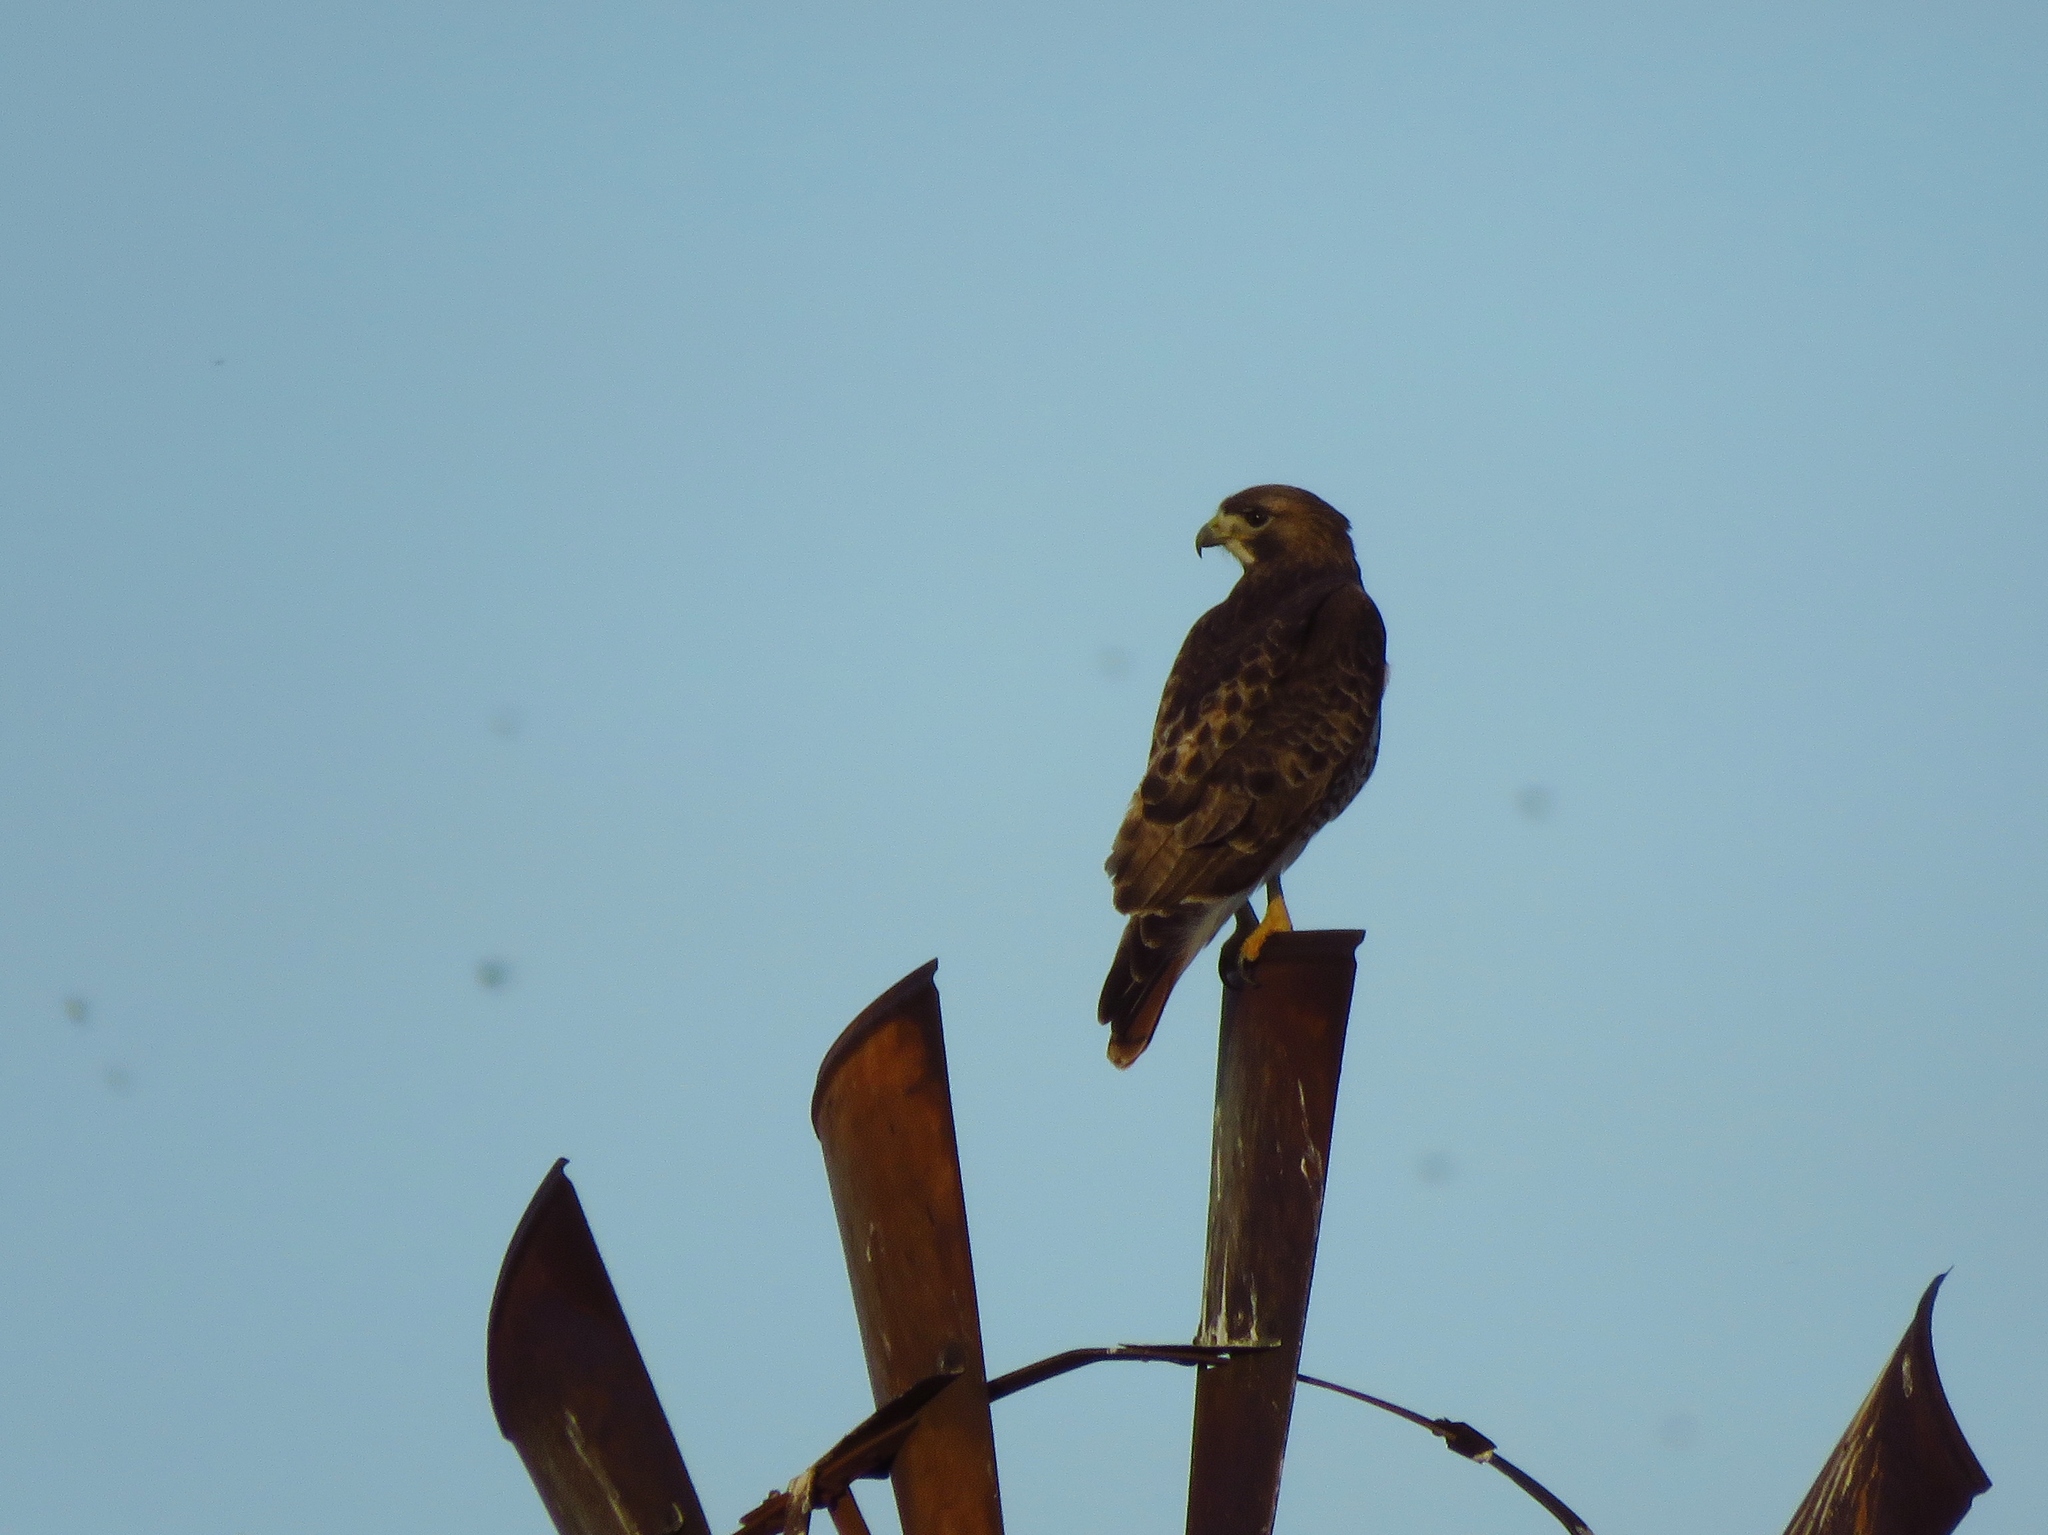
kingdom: Animalia
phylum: Chordata
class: Aves
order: Accipitriformes
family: Accipitridae
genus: Buteo
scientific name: Buteo jamaicensis
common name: Red-tailed hawk
